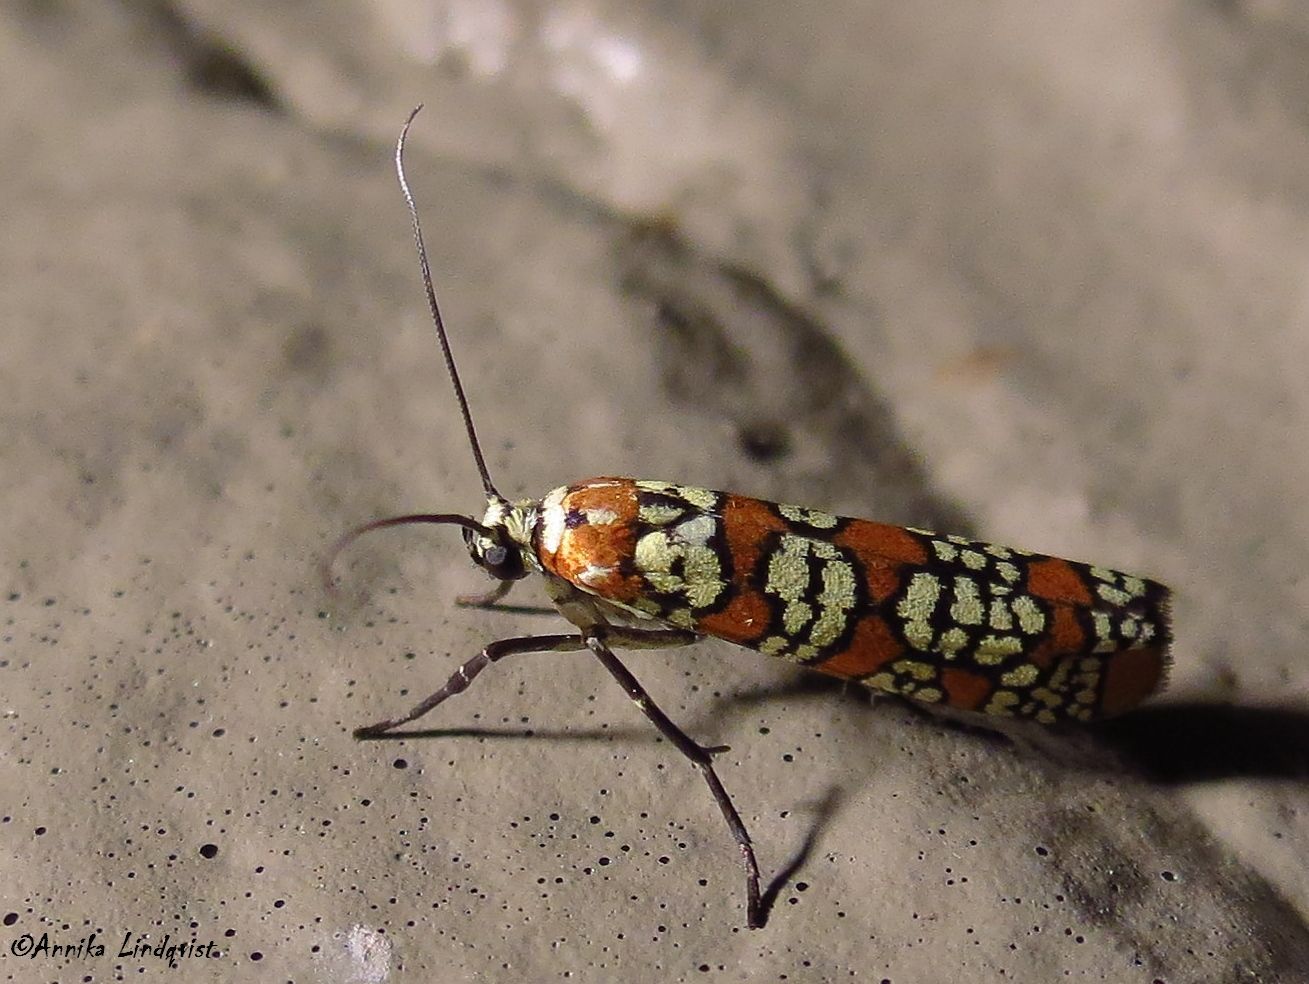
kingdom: Animalia
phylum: Arthropoda
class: Insecta
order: Lepidoptera
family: Attevidae
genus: Atteva
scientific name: Atteva punctella
